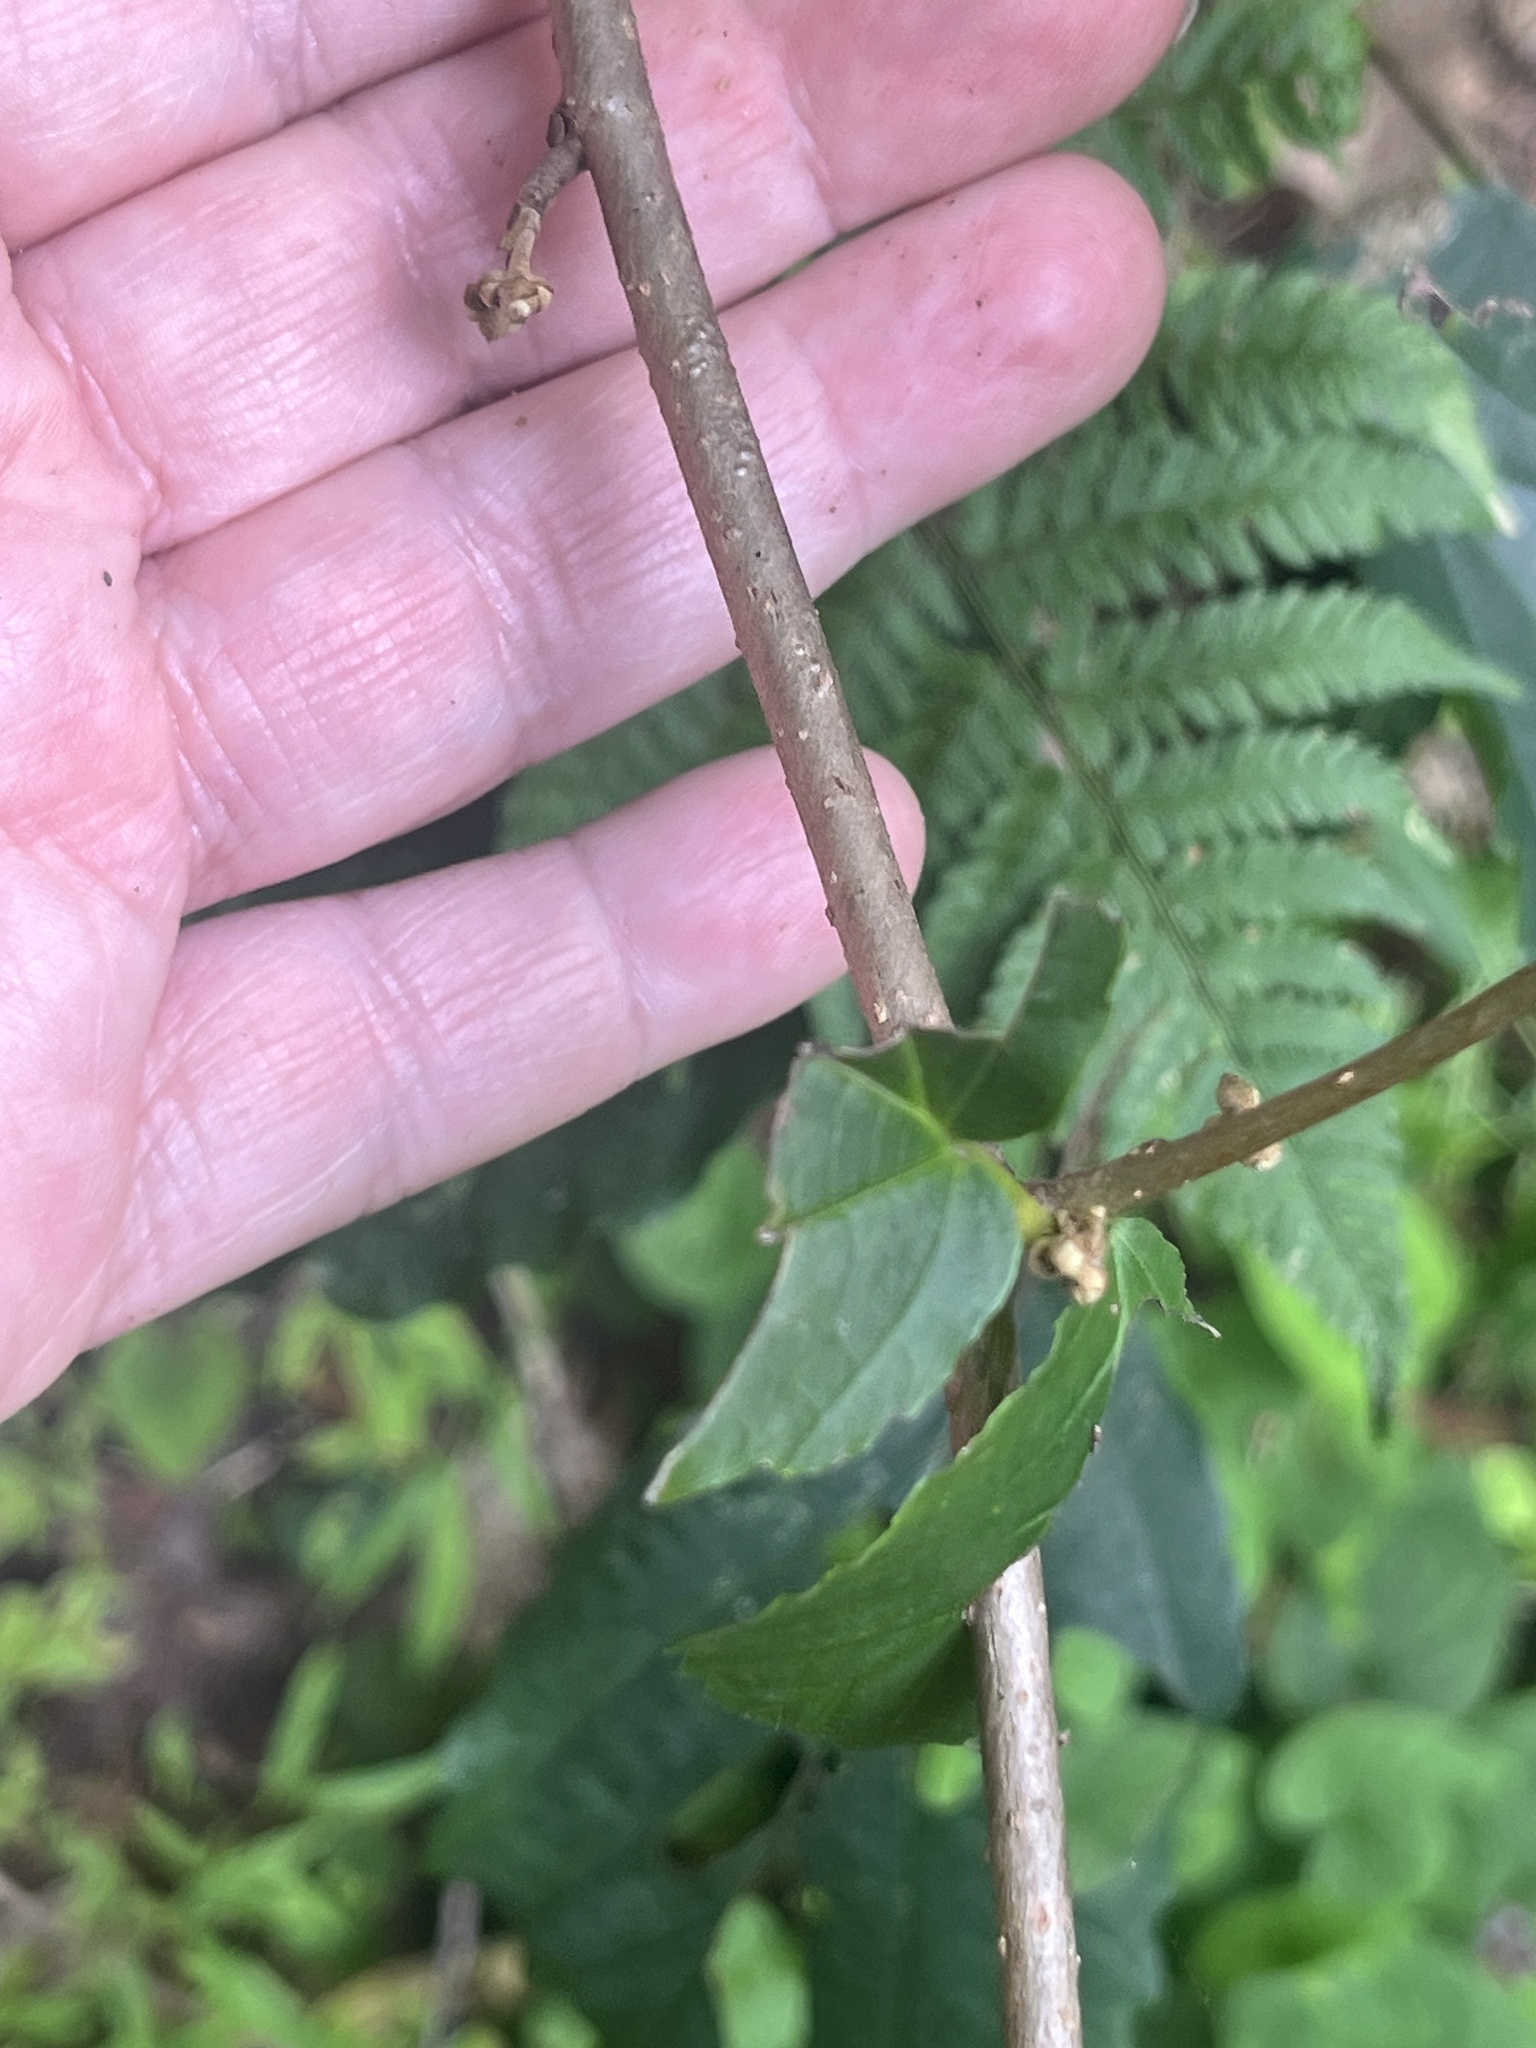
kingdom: Plantae
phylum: Tracheophyta
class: Magnoliopsida
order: Saxifragales
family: Hamamelidaceae
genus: Hamamelis
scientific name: Hamamelis virginiana
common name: Witch-hazel
